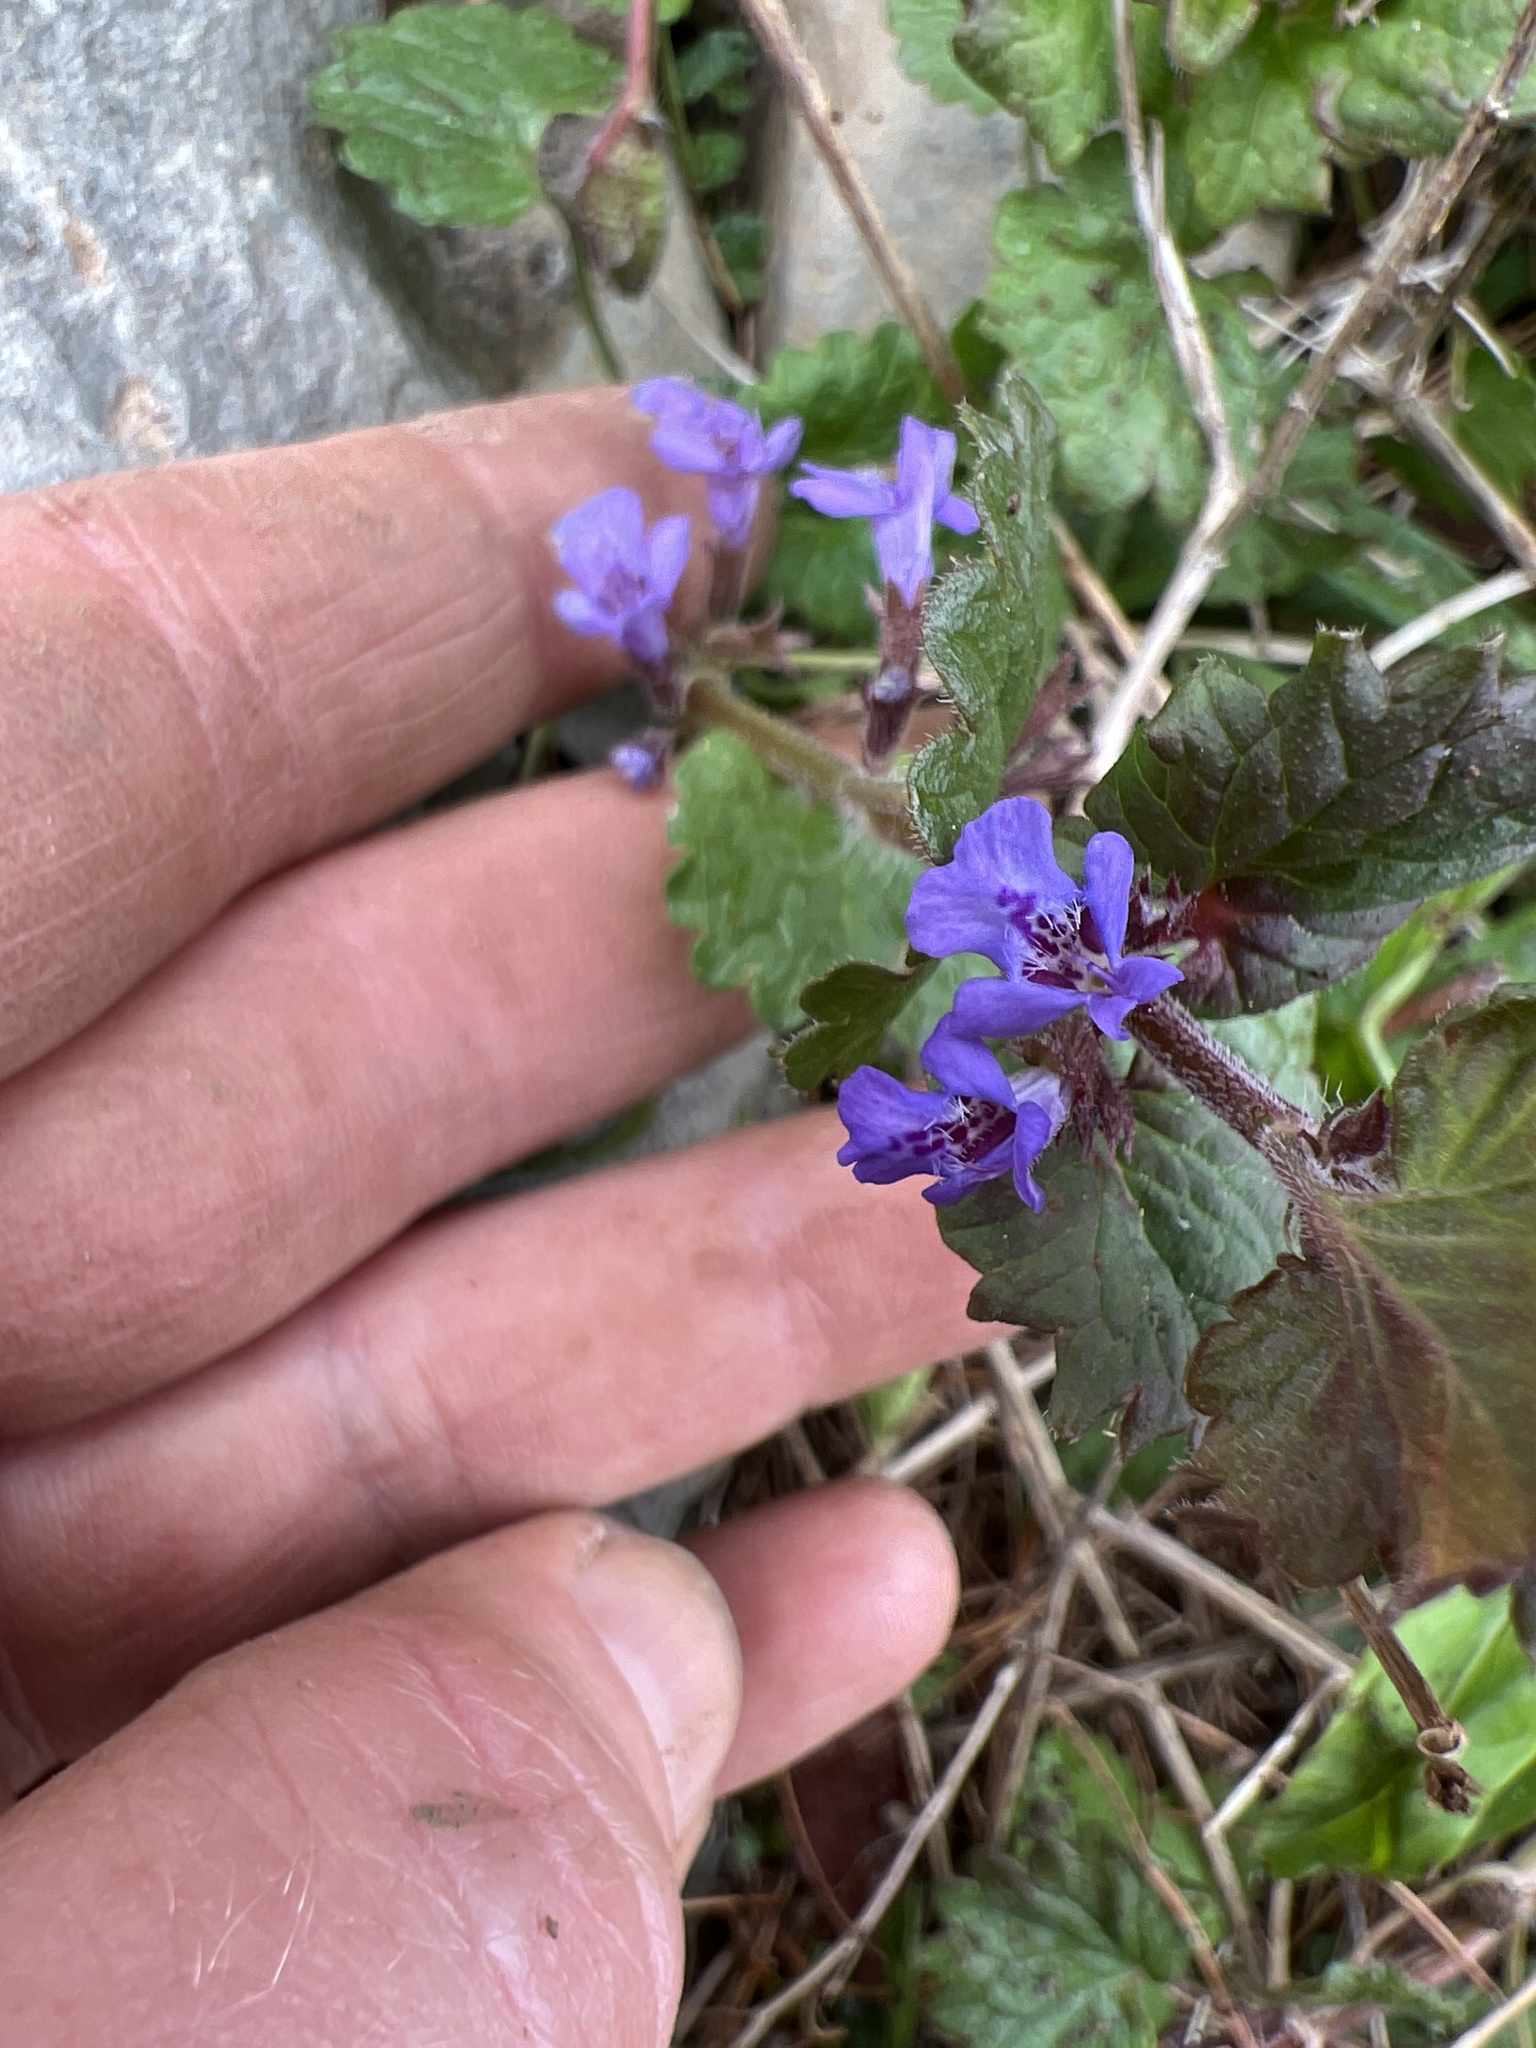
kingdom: Plantae
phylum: Tracheophyta
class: Magnoliopsida
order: Lamiales
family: Lamiaceae
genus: Glechoma
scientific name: Glechoma hederacea
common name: Ground ivy
